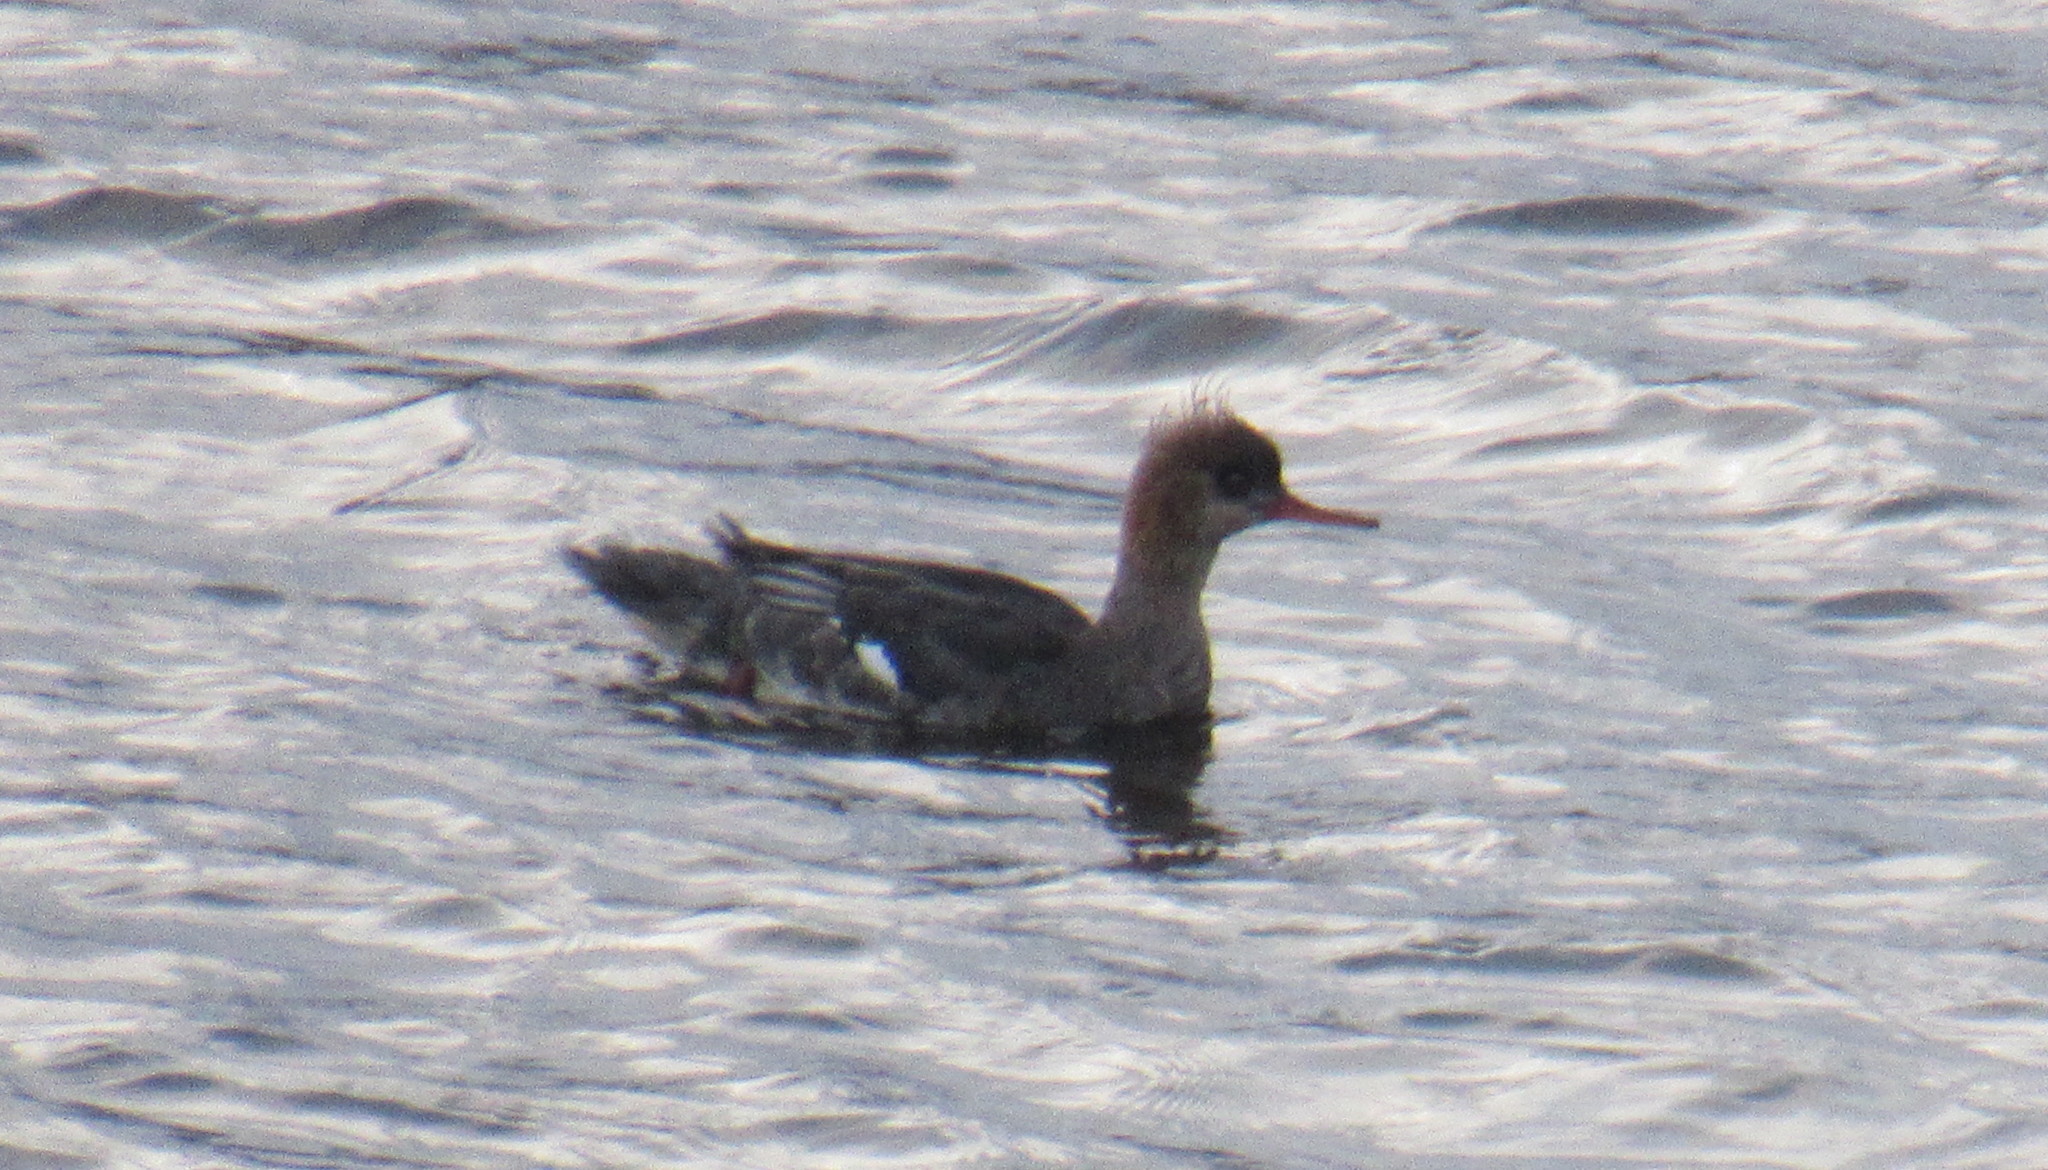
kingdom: Animalia
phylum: Chordata
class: Aves
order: Anseriformes
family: Anatidae
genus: Mergus
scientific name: Mergus serrator
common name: Red-breasted merganser
